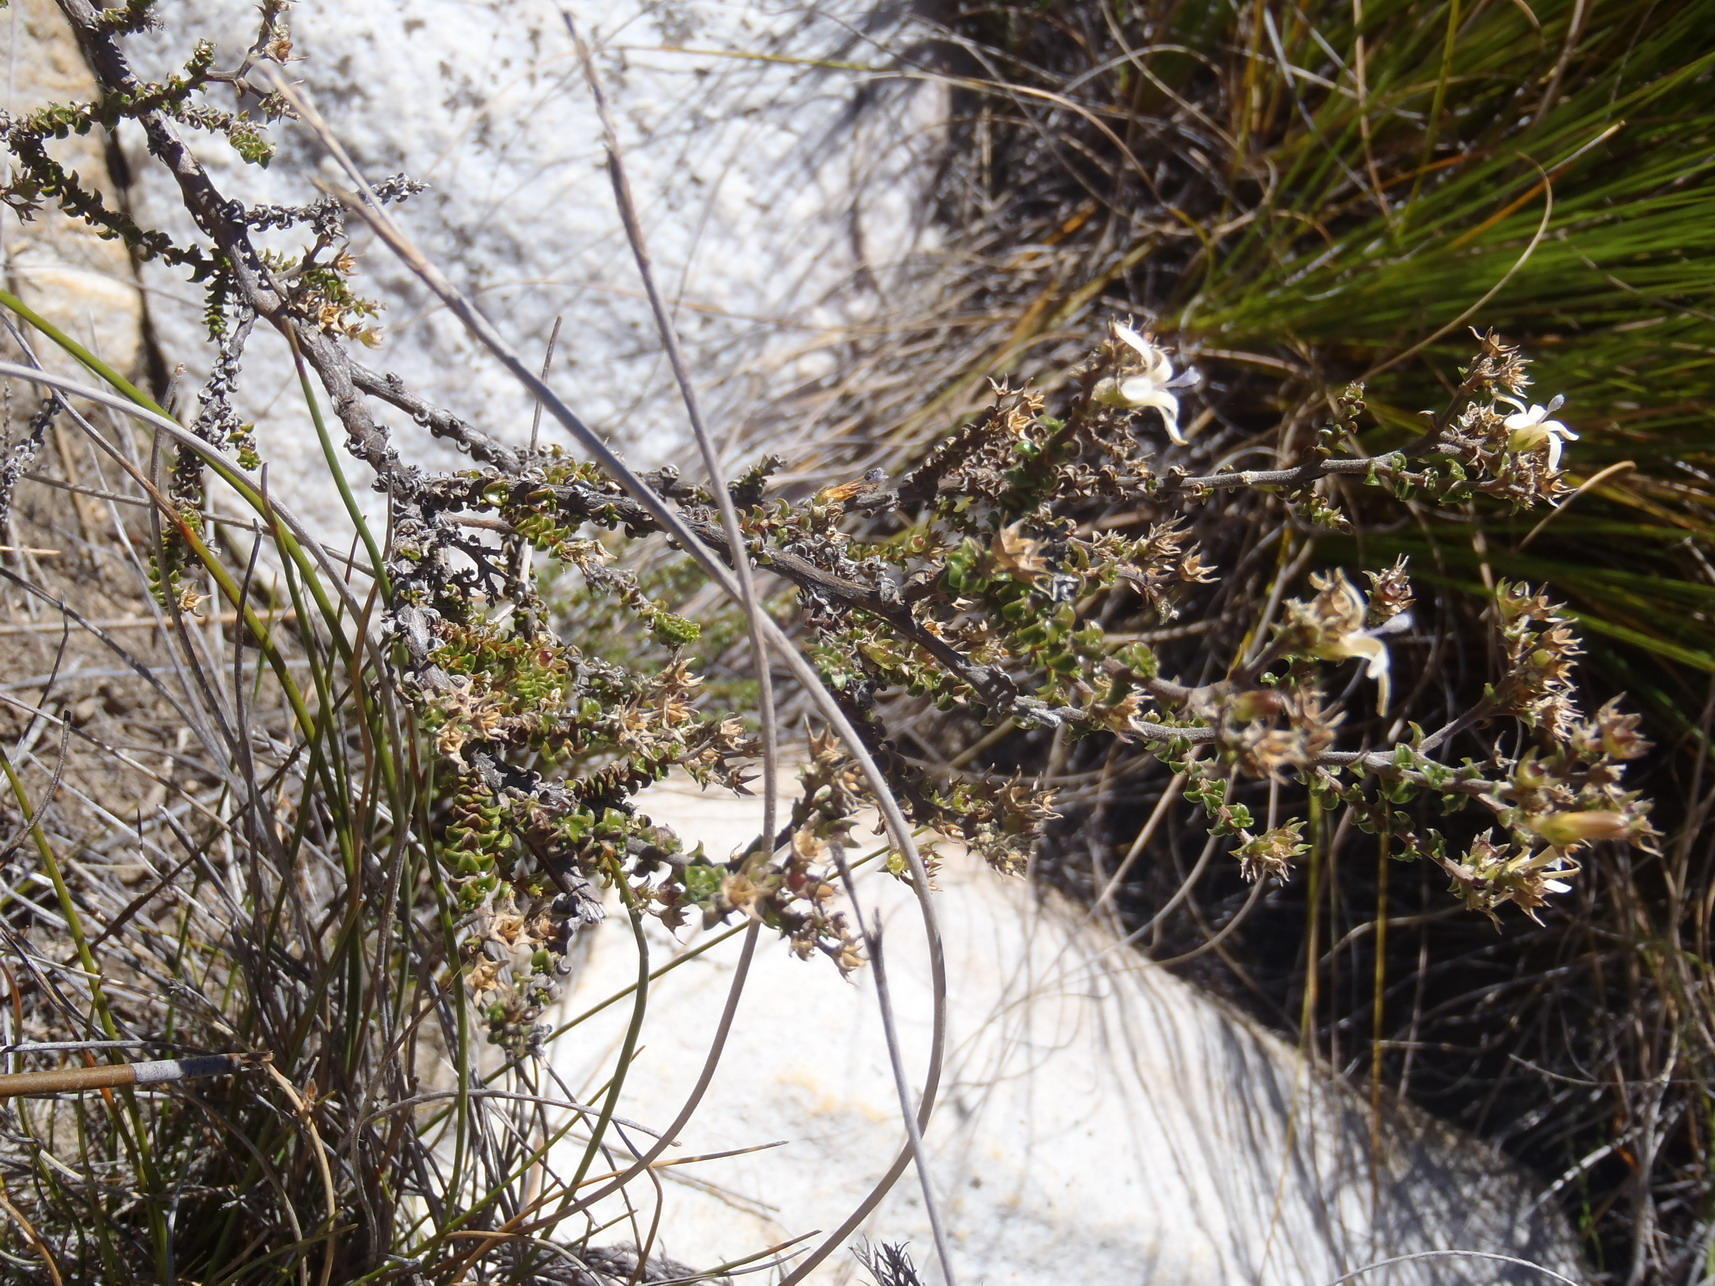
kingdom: Plantae
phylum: Tracheophyta
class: Magnoliopsida
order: Asterales
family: Campanulaceae
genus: Wahlenbergia
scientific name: Wahlenbergia nodosa
